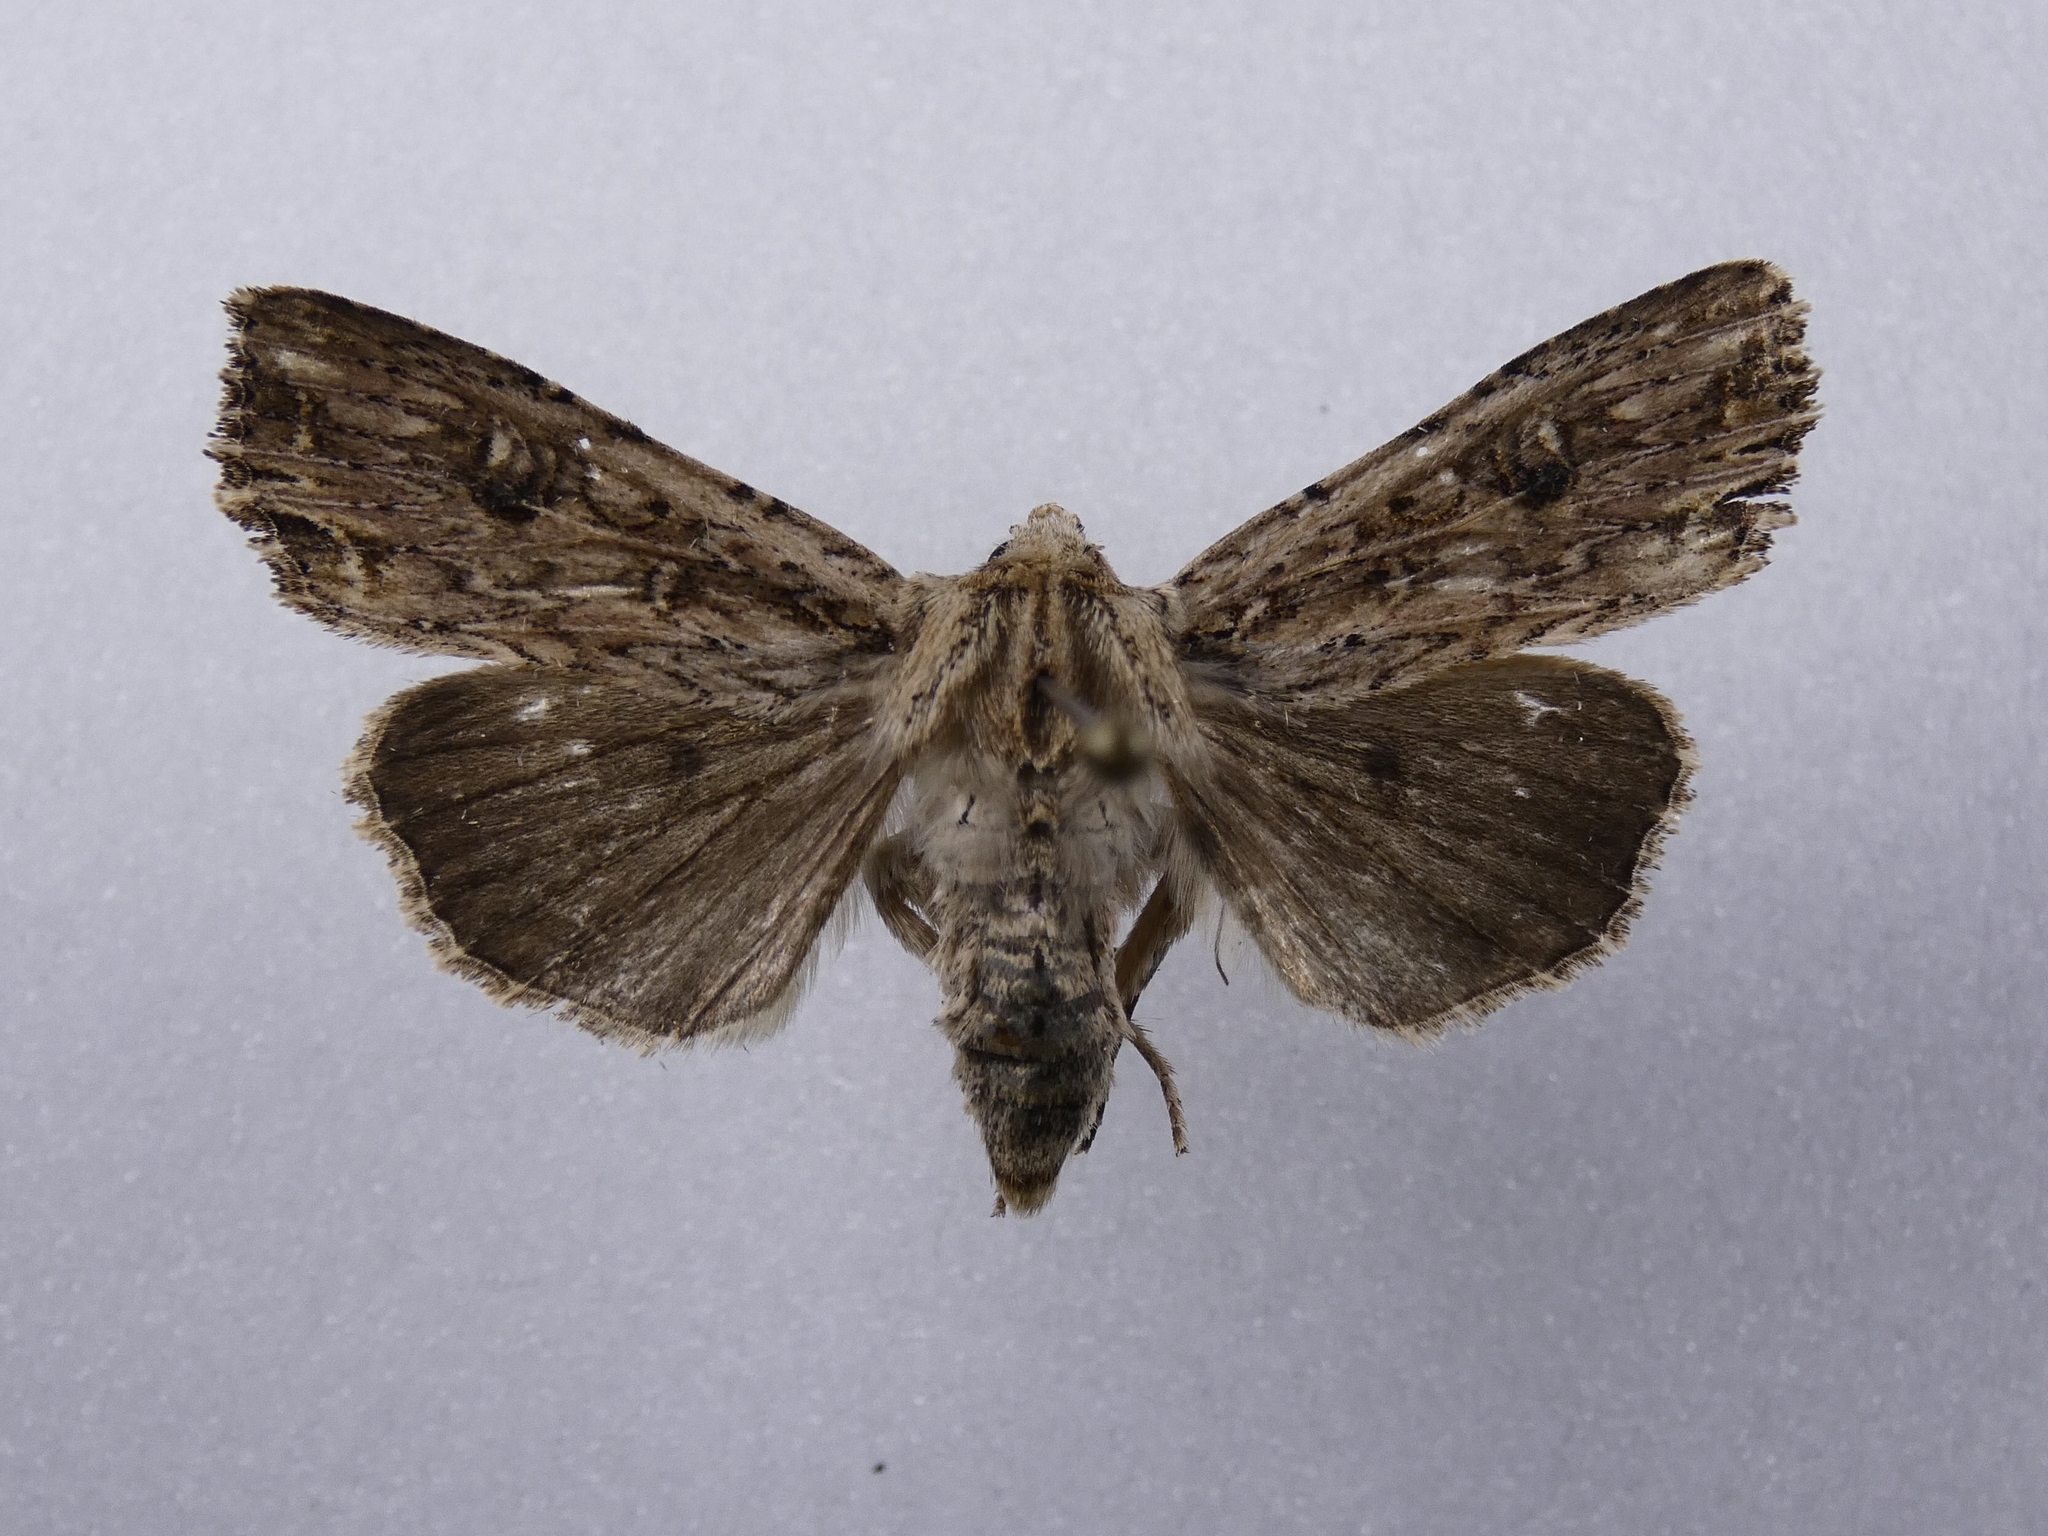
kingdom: Animalia
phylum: Arthropoda
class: Insecta
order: Lepidoptera
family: Noctuidae
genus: Ichneutica
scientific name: Ichneutica lignana
